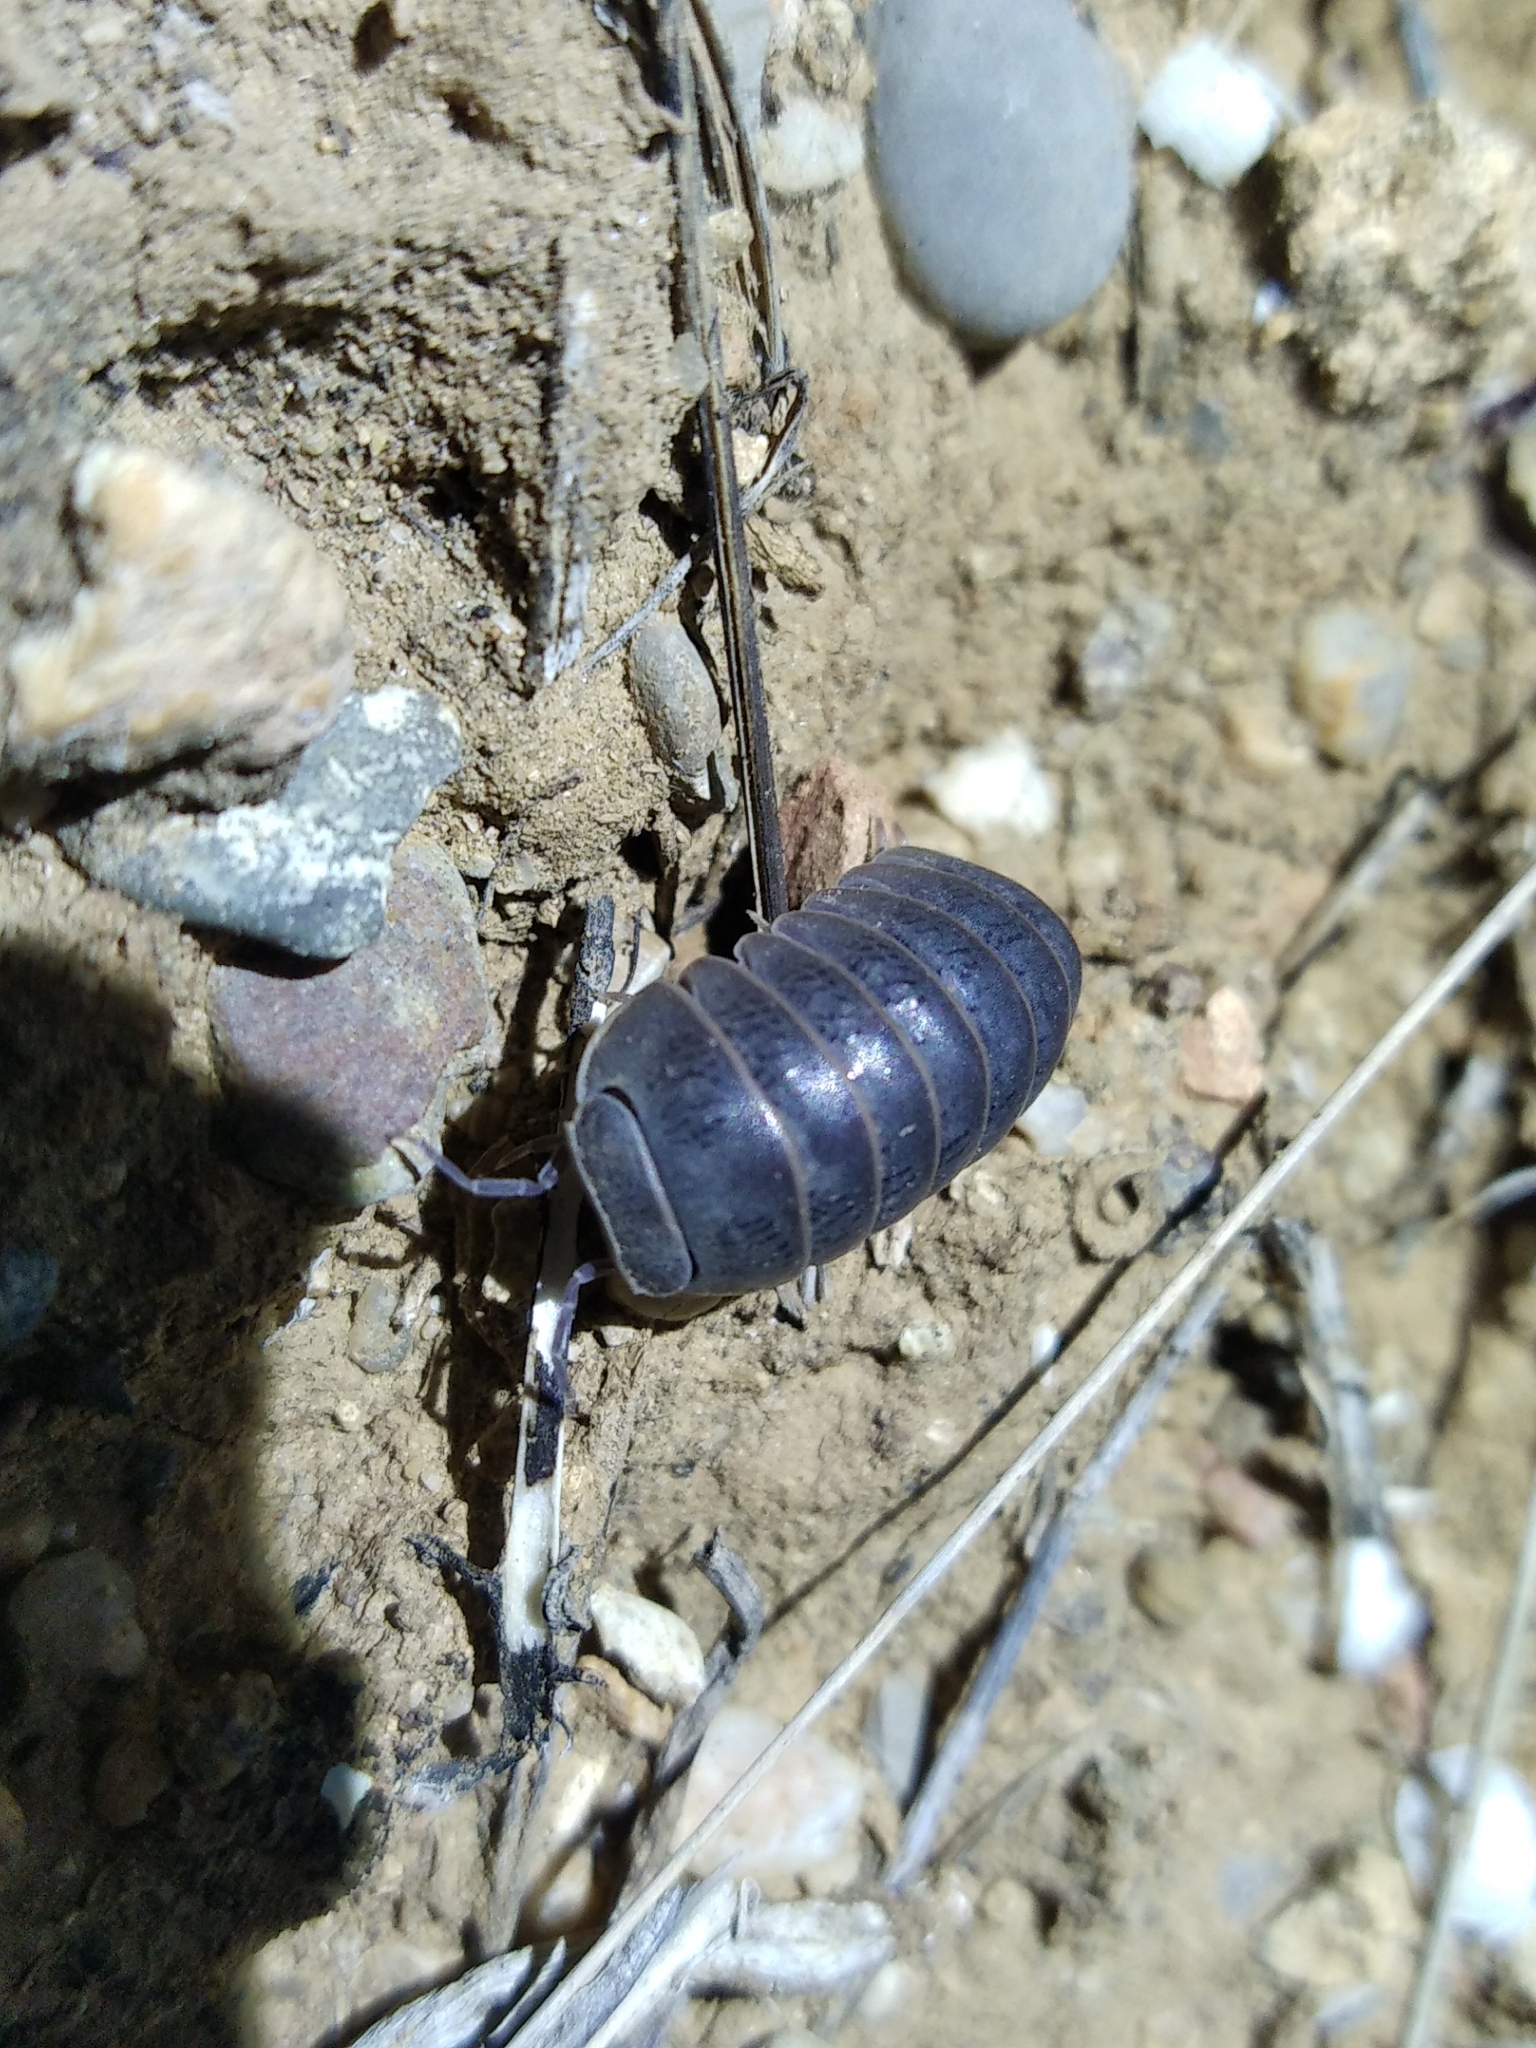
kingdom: Animalia
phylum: Arthropoda
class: Malacostraca
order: Isopoda
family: Armadillidae
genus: Armadillo
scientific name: Armadillo officinalis
